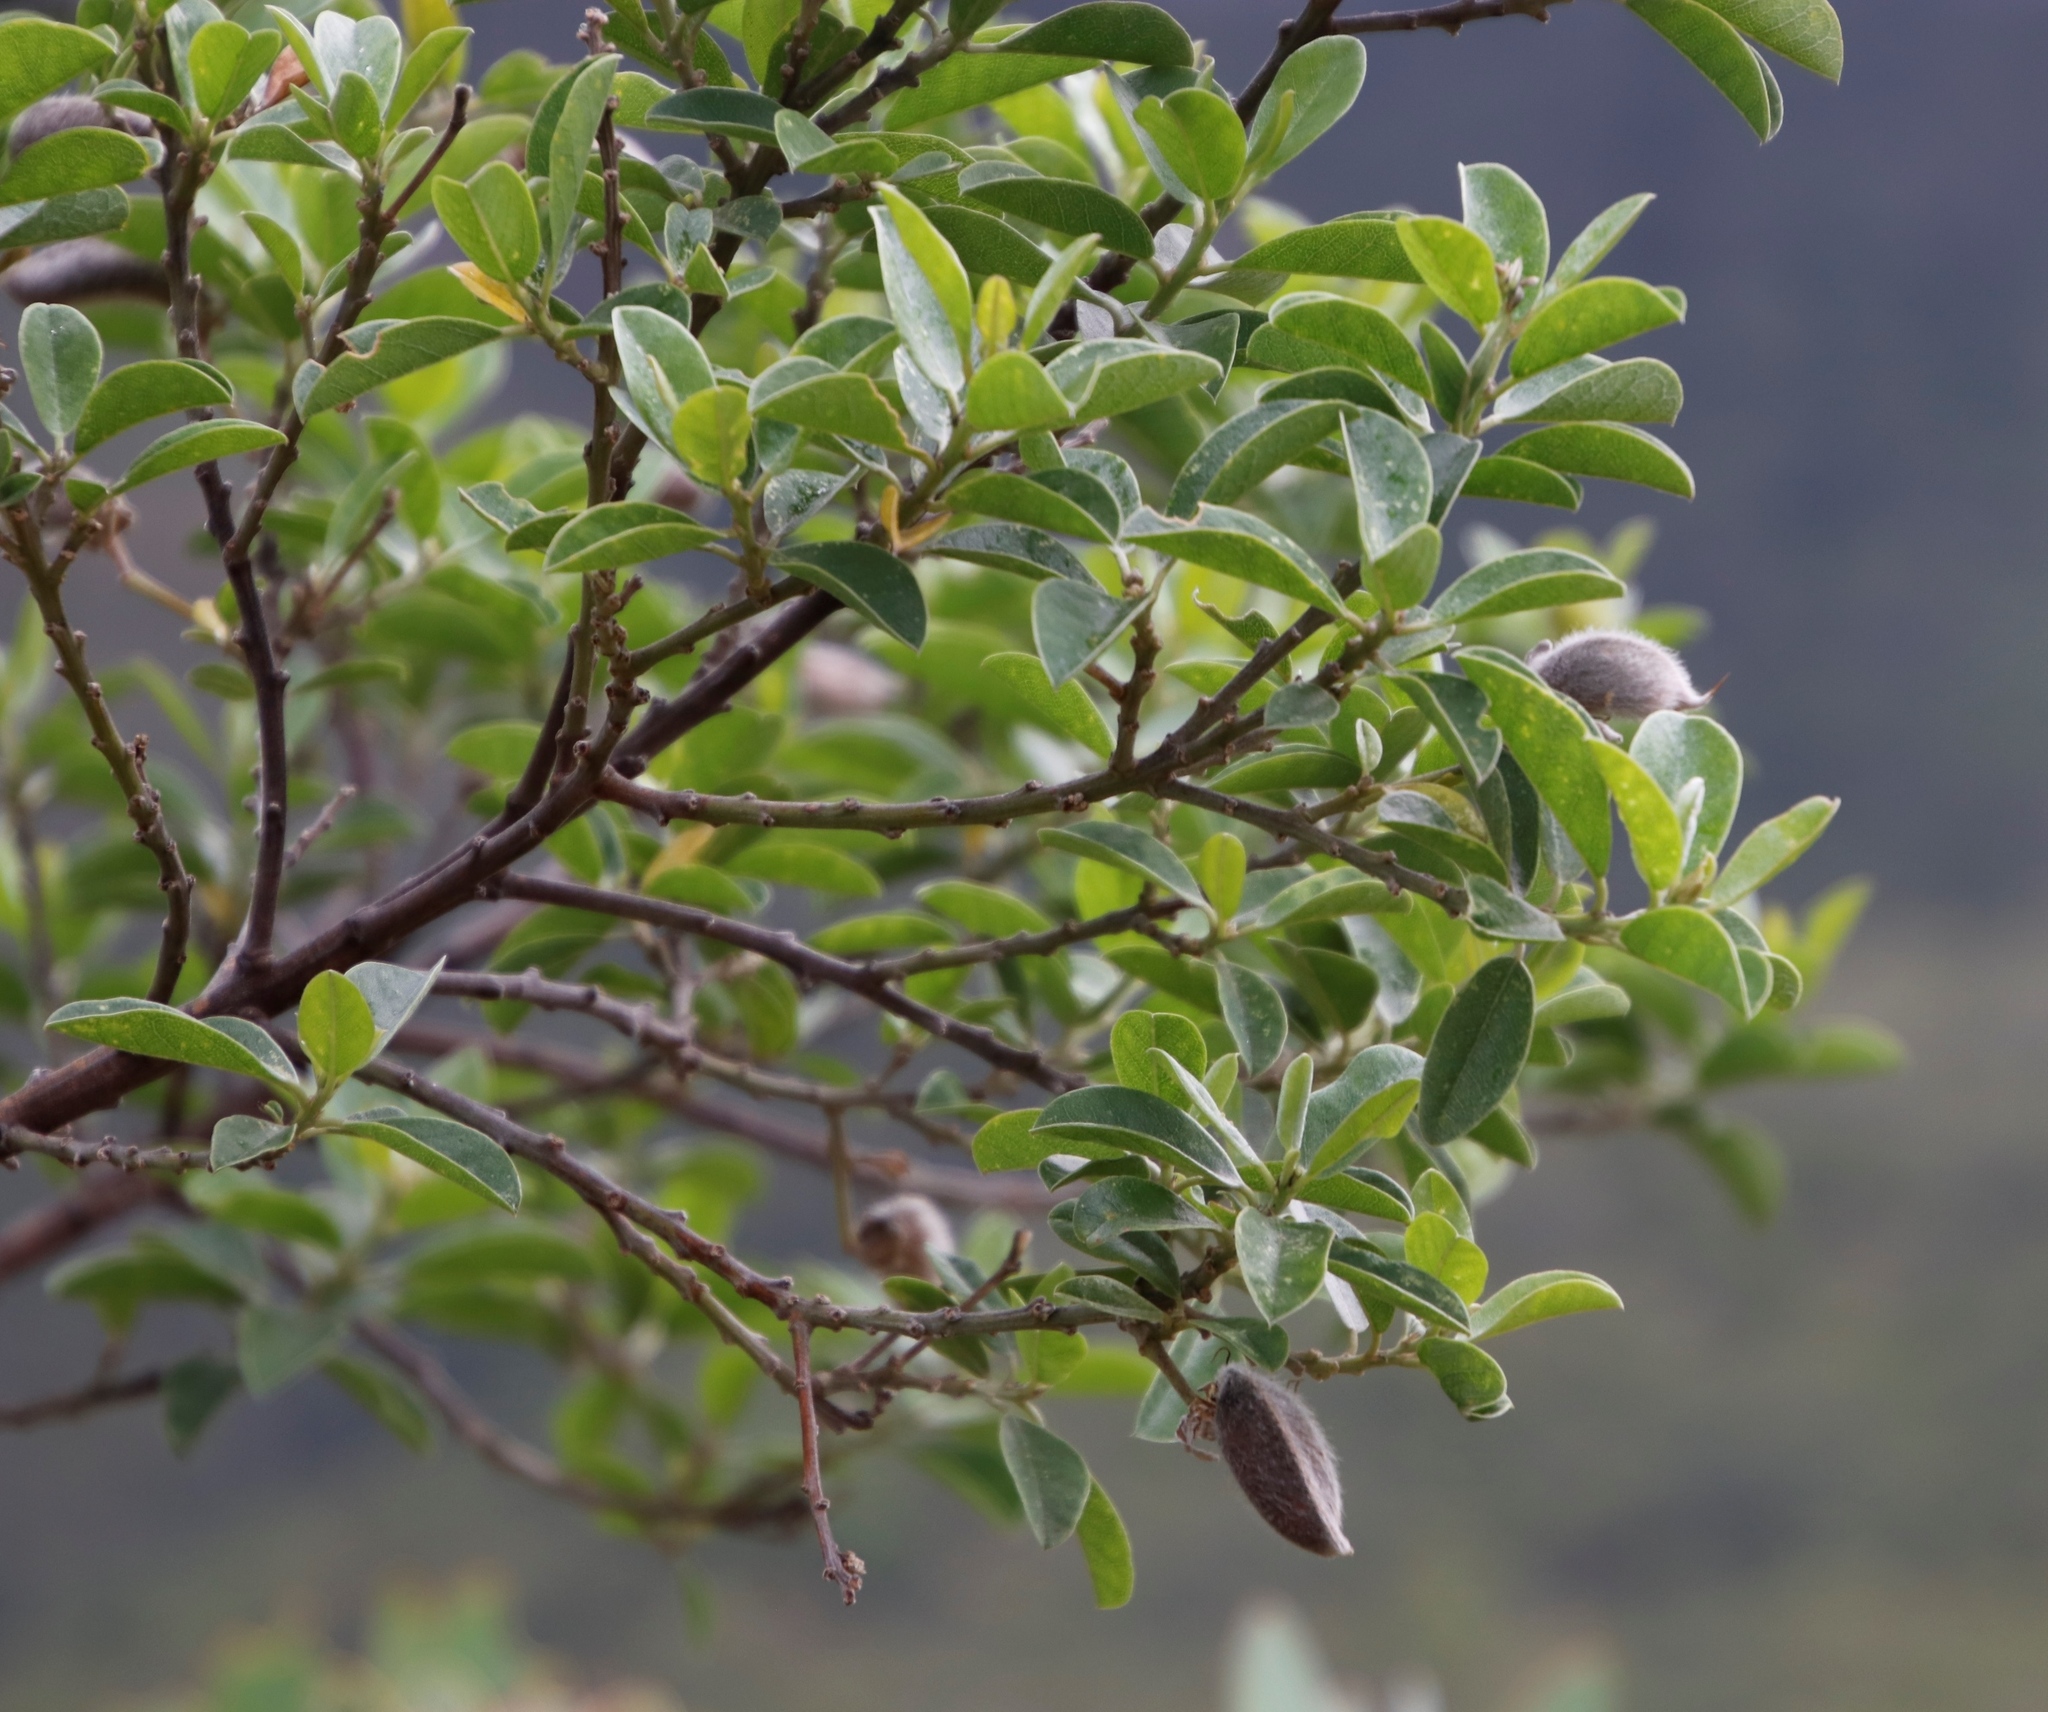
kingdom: Plantae
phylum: Tracheophyta
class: Magnoliopsida
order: Fabales
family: Fabaceae
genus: Podalyria
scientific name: Podalyria calyptrata
